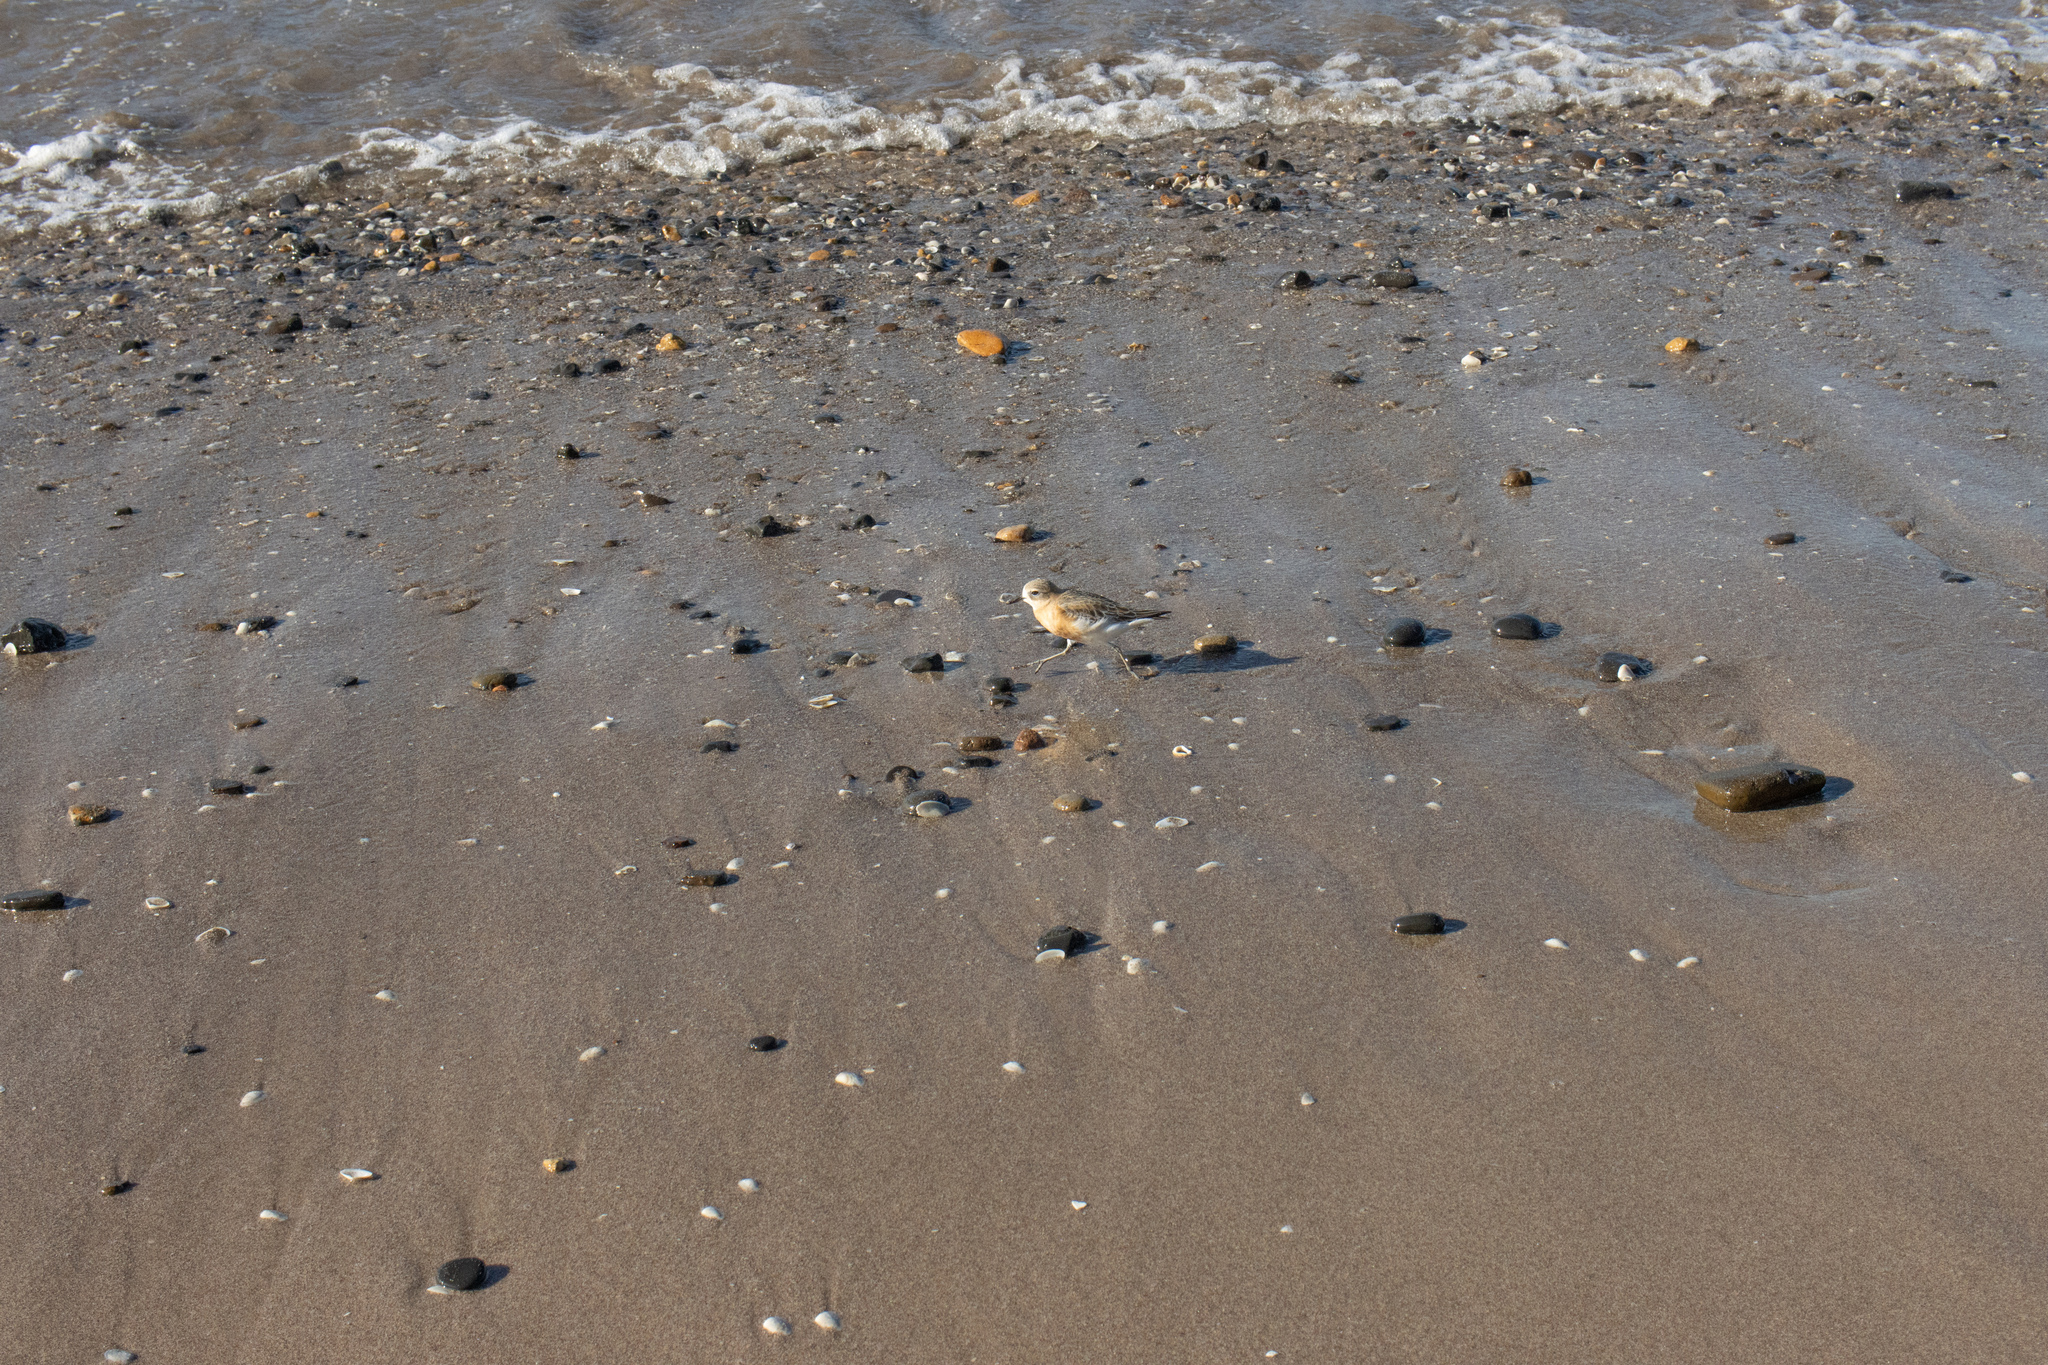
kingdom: Animalia
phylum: Chordata
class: Aves
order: Charadriiformes
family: Charadriidae
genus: Anarhynchus
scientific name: Anarhynchus
